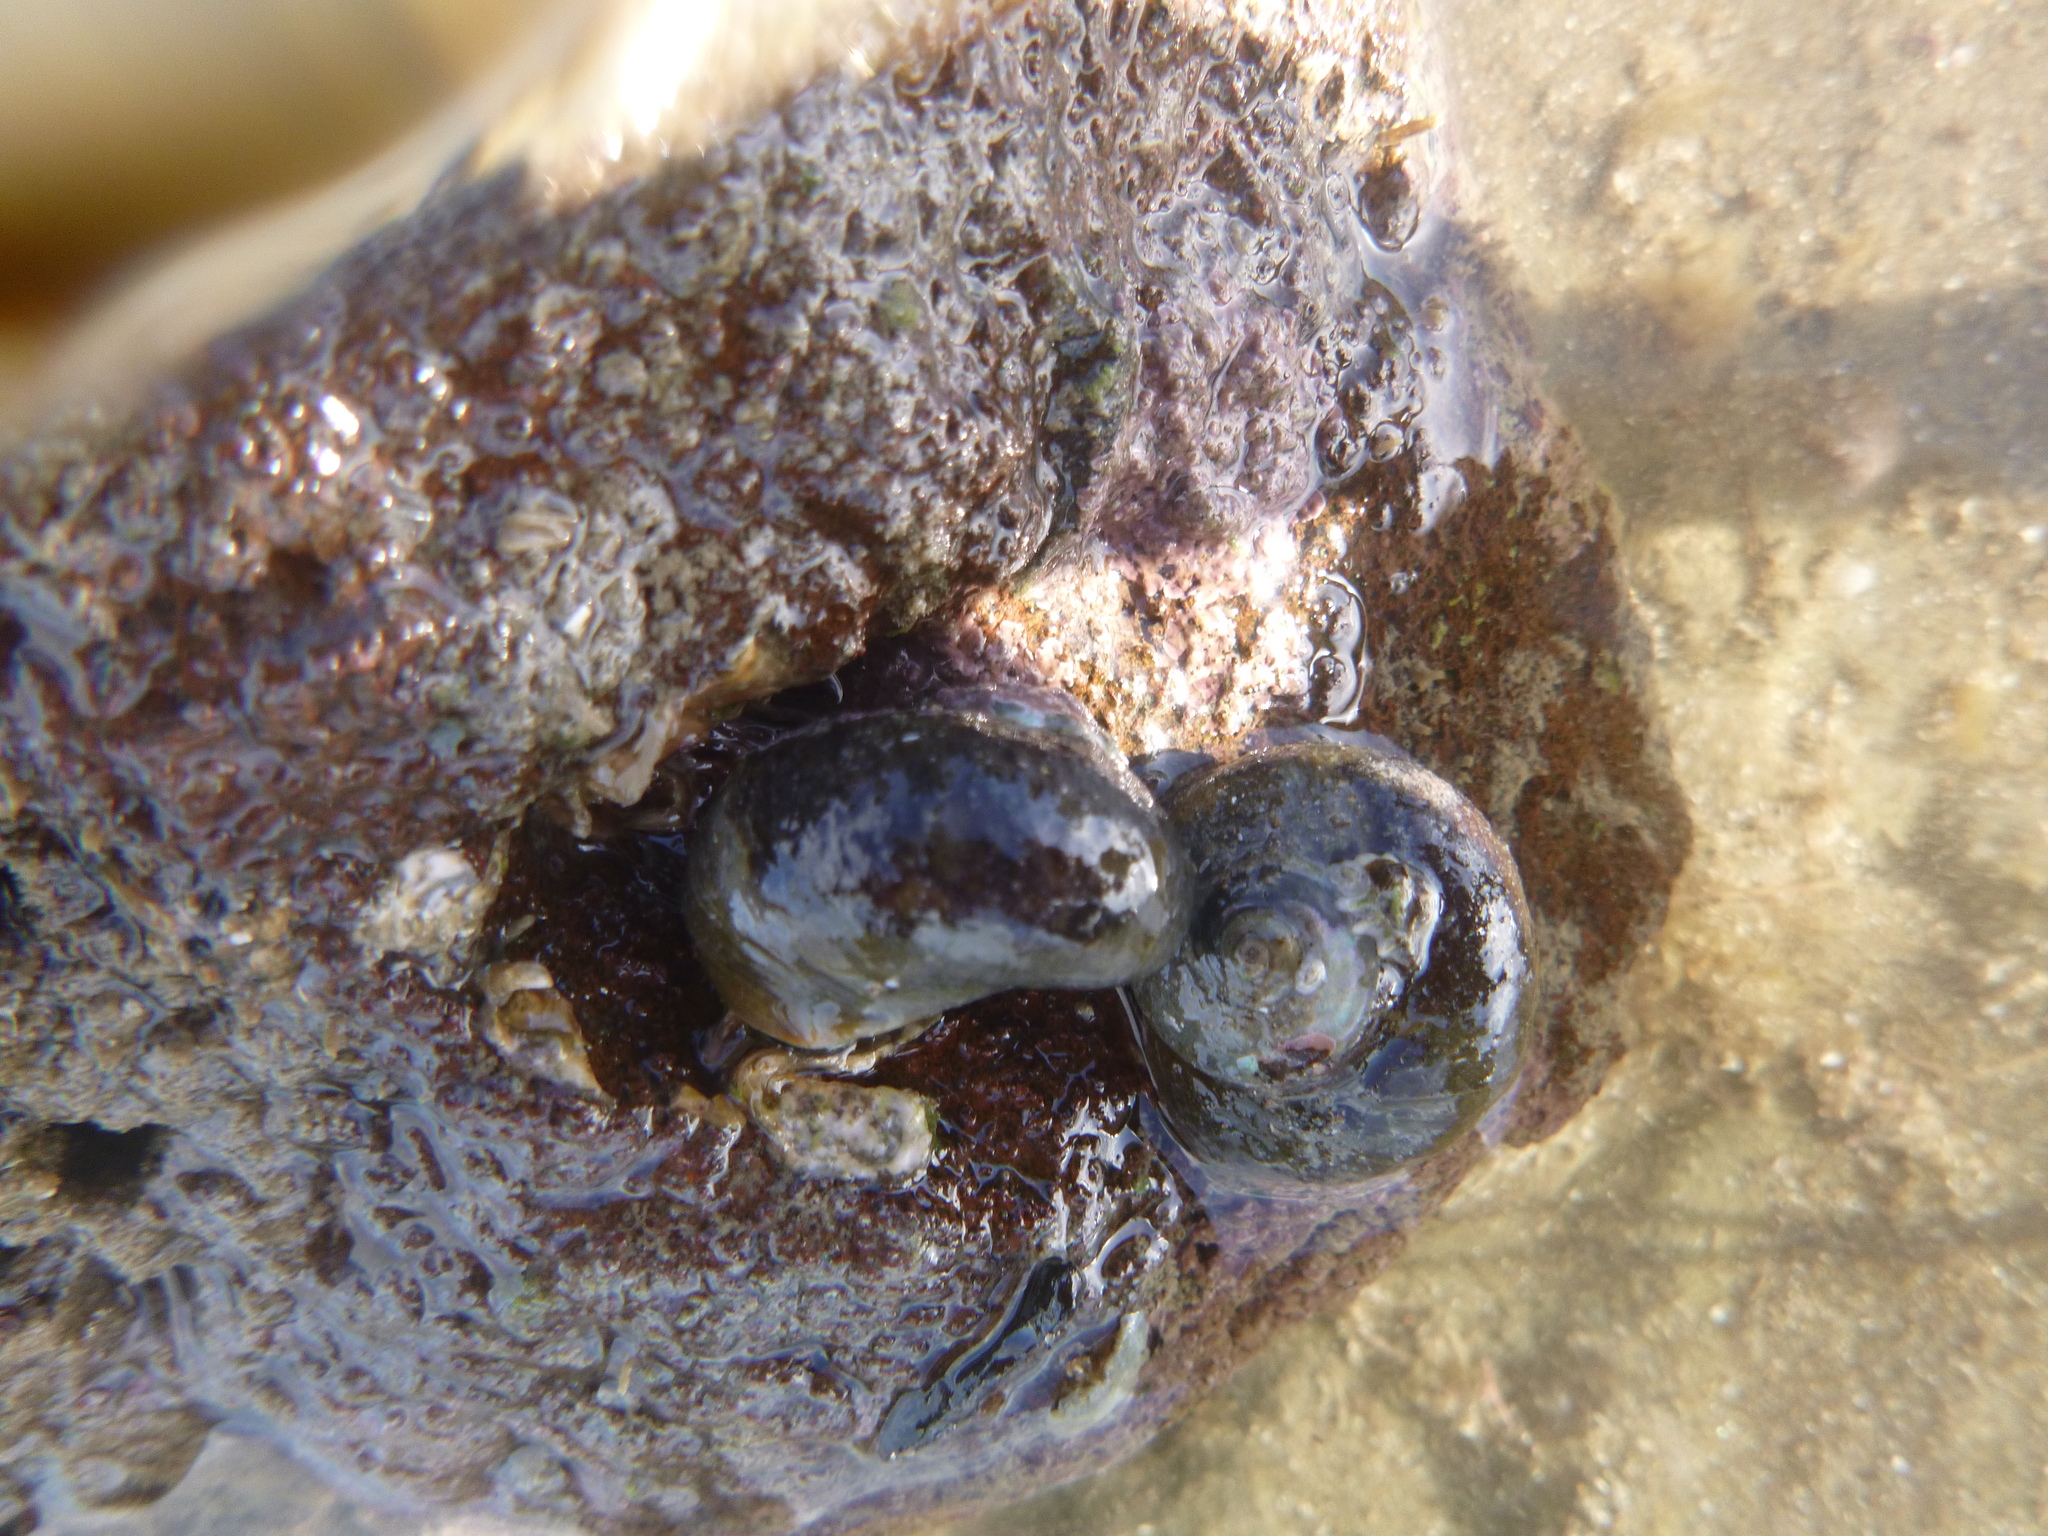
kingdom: Animalia
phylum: Mollusca
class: Gastropoda
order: Trochida
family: Turbinidae
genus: Lunella
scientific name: Lunella smaragda
